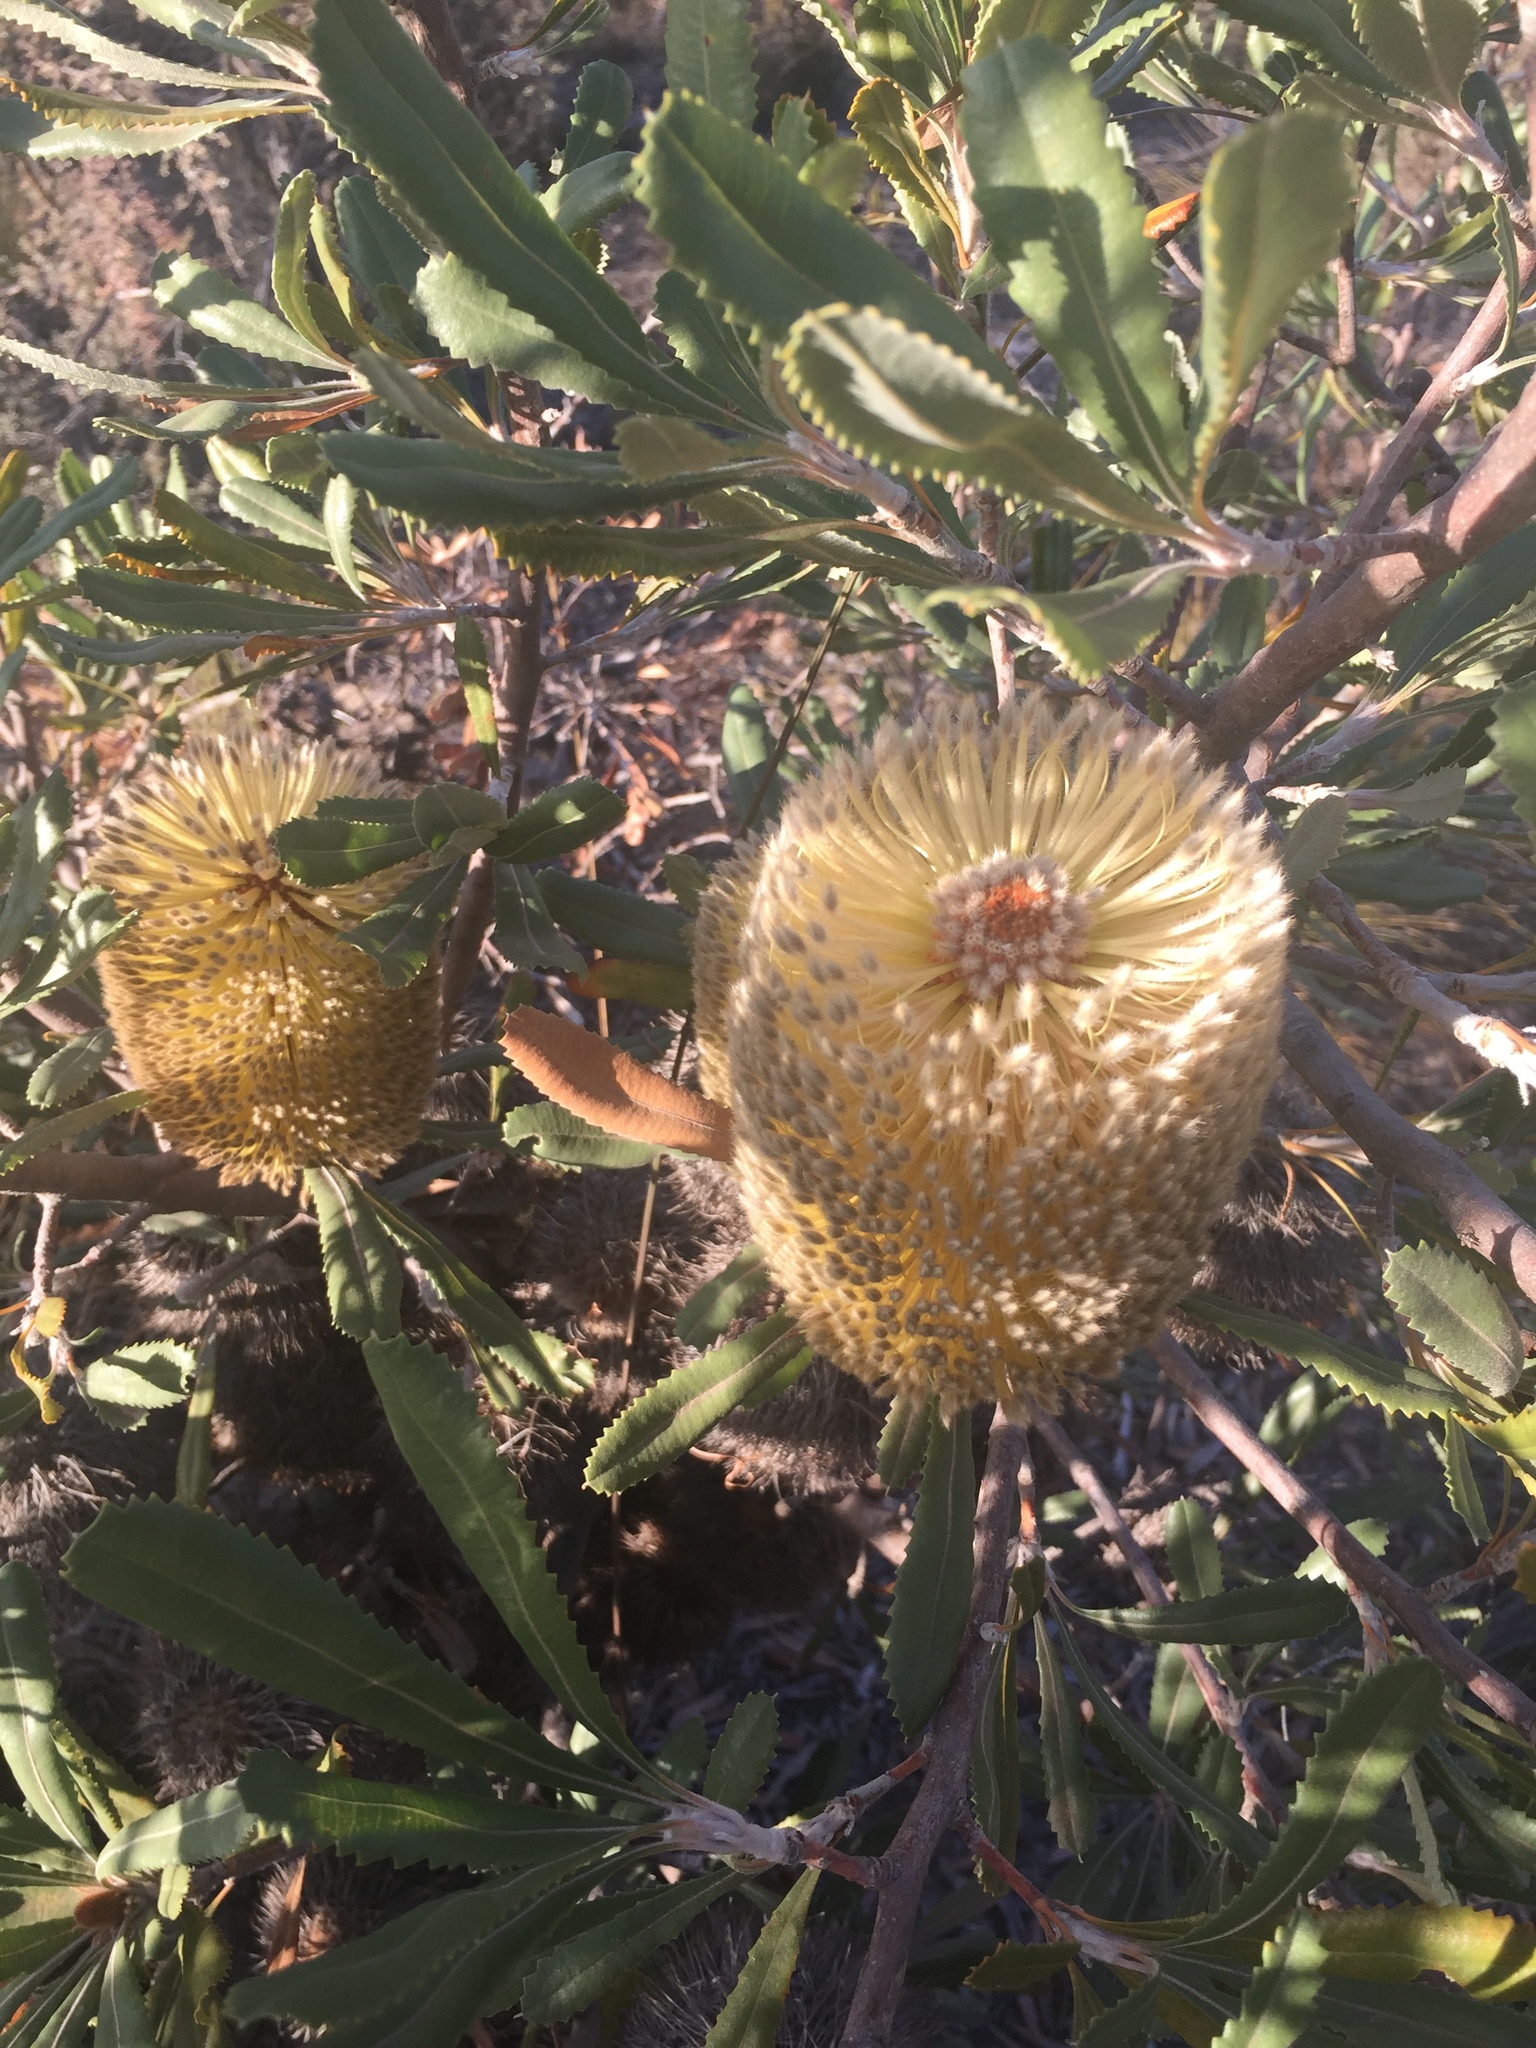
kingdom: Plantae
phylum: Tracheophyta
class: Magnoliopsida
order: Proteales
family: Proteaceae
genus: Banksia
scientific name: Banksia ornata
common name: Desert banksia
